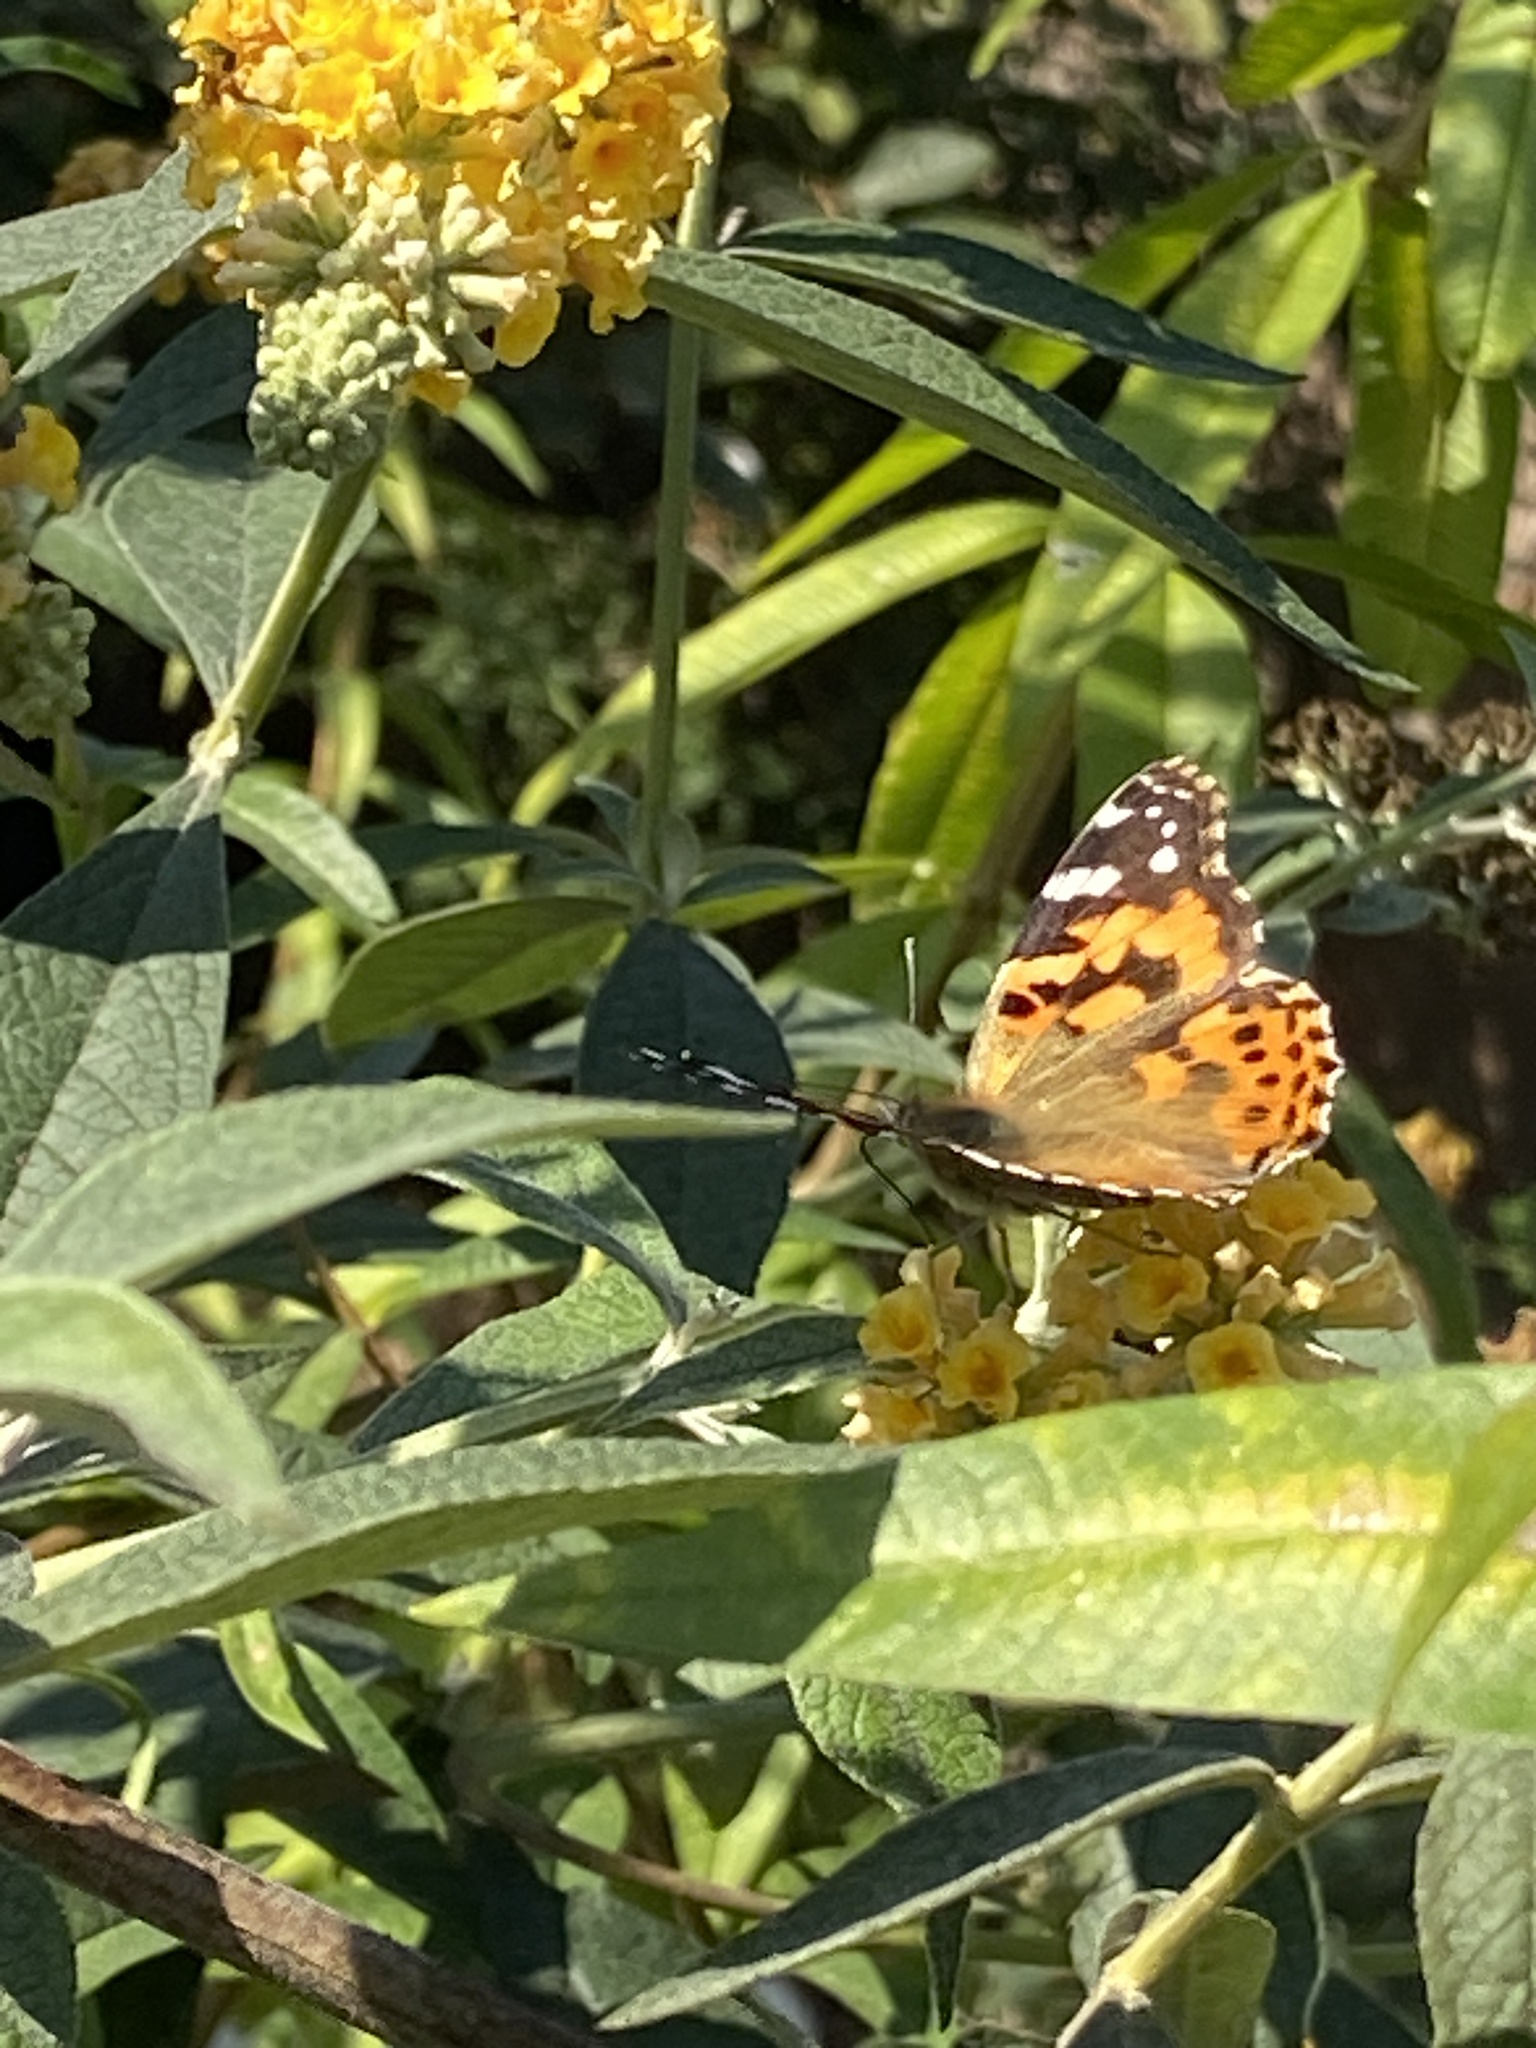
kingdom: Animalia
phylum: Arthropoda
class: Insecta
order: Lepidoptera
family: Nymphalidae
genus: Vanessa
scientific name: Vanessa cardui
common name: Painted lady
